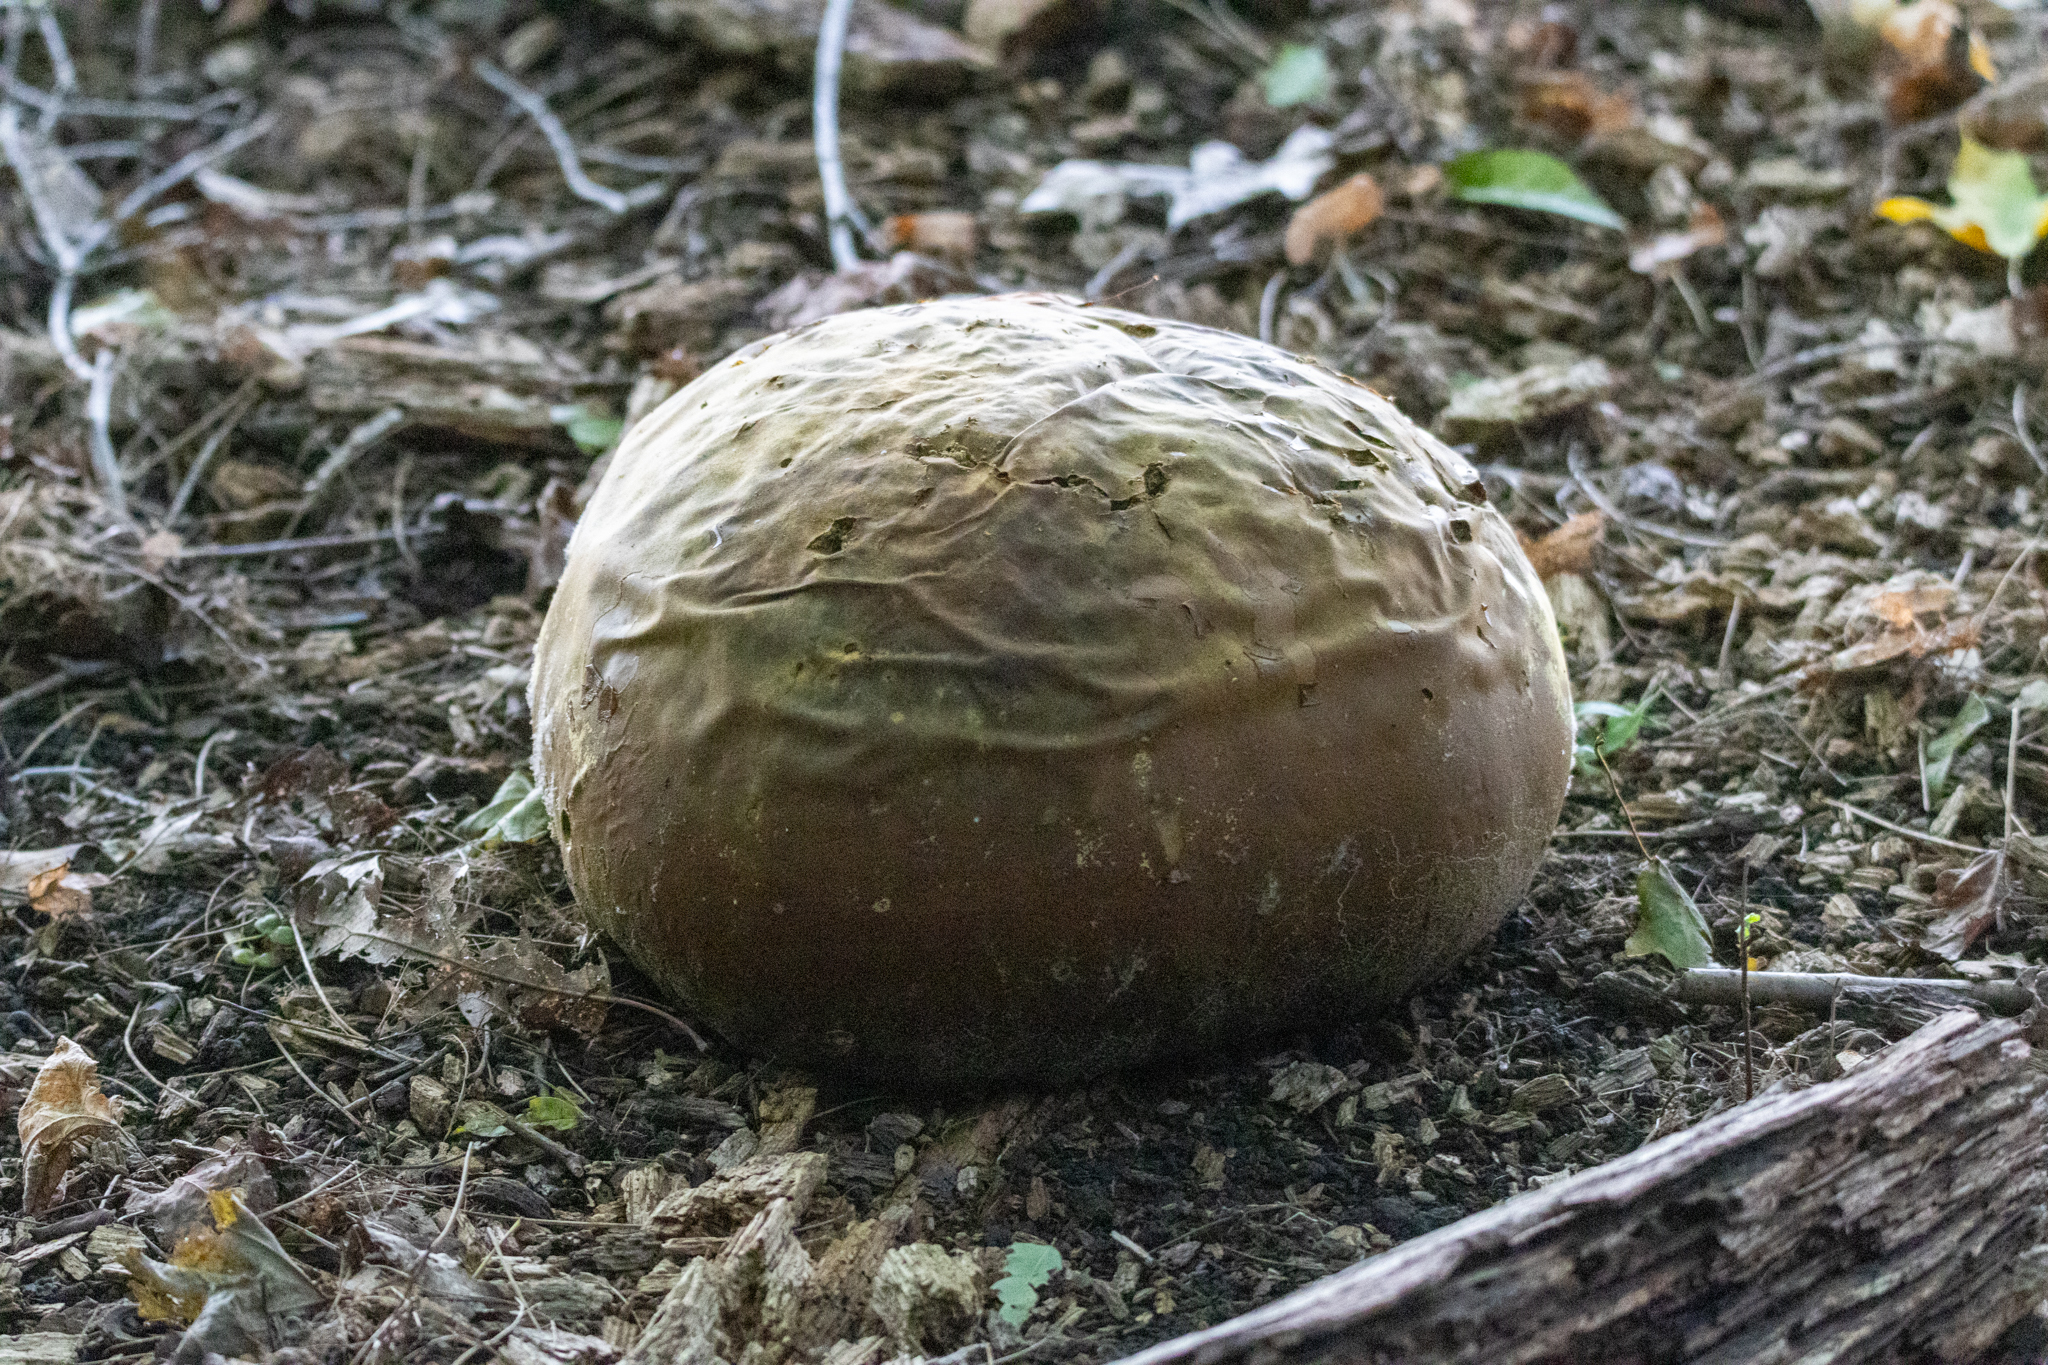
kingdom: Fungi
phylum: Basidiomycota
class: Agaricomycetes
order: Agaricales
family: Lycoperdaceae
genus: Calvatia
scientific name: Calvatia gigantea
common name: Giant puffball
